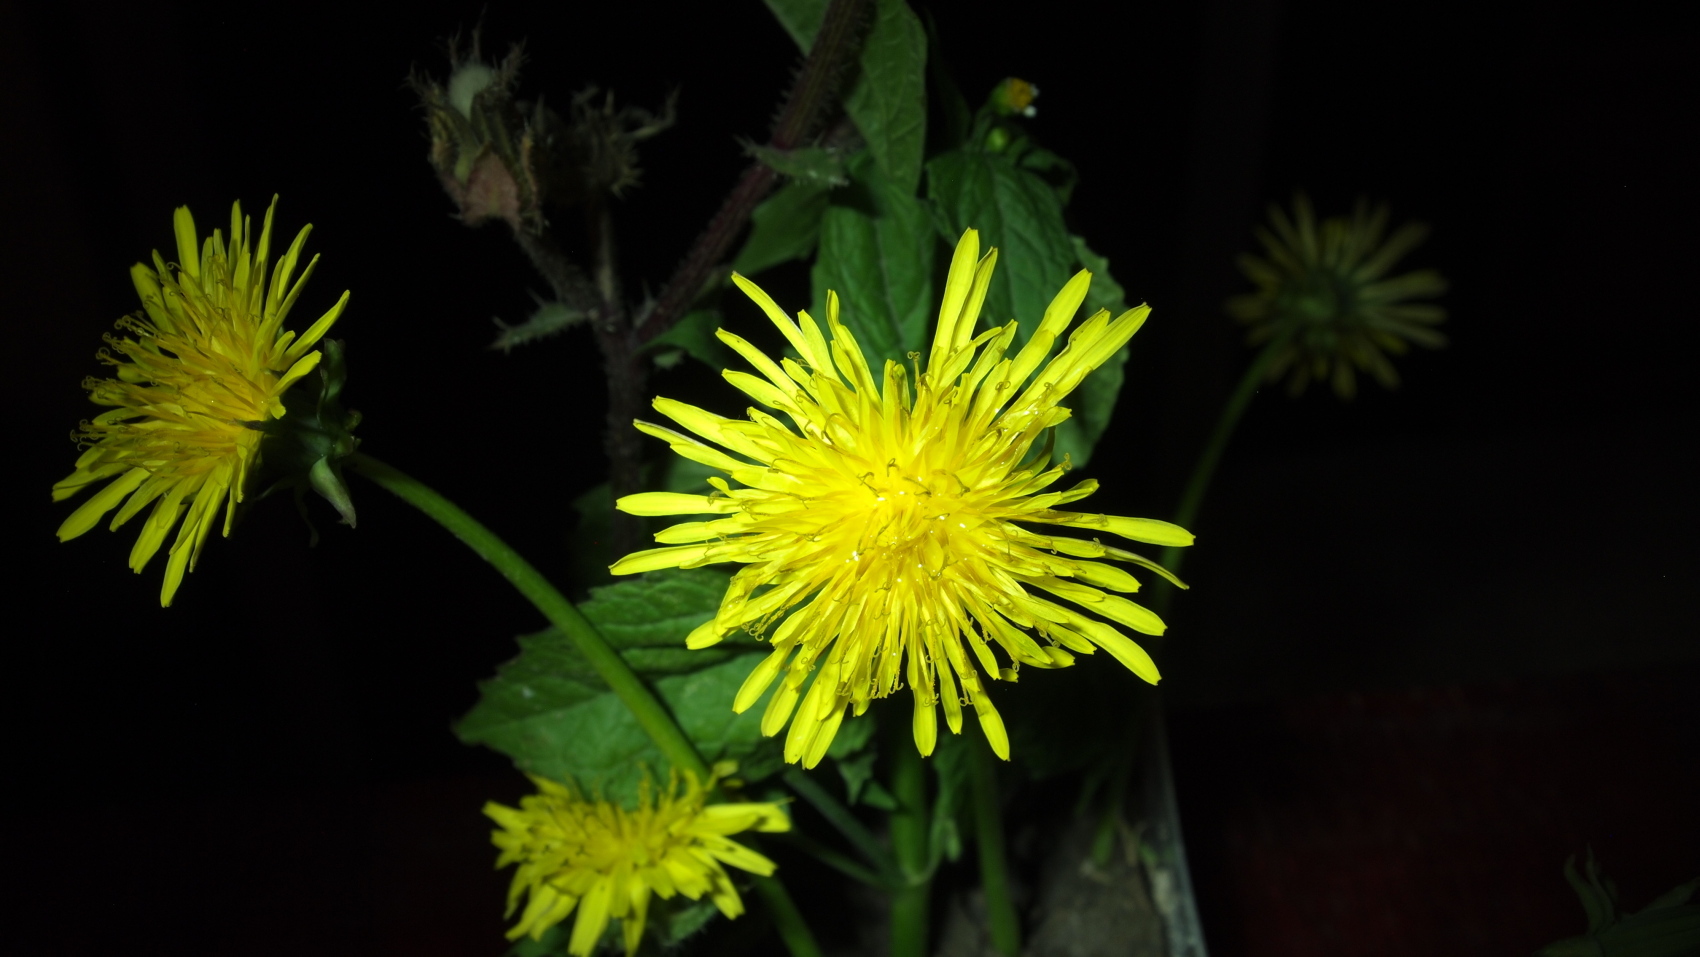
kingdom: Plantae
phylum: Tracheophyta
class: Magnoliopsida
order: Asterales
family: Asteraceae
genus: Taraxacum
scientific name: Taraxacum officinale
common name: Common dandelion
